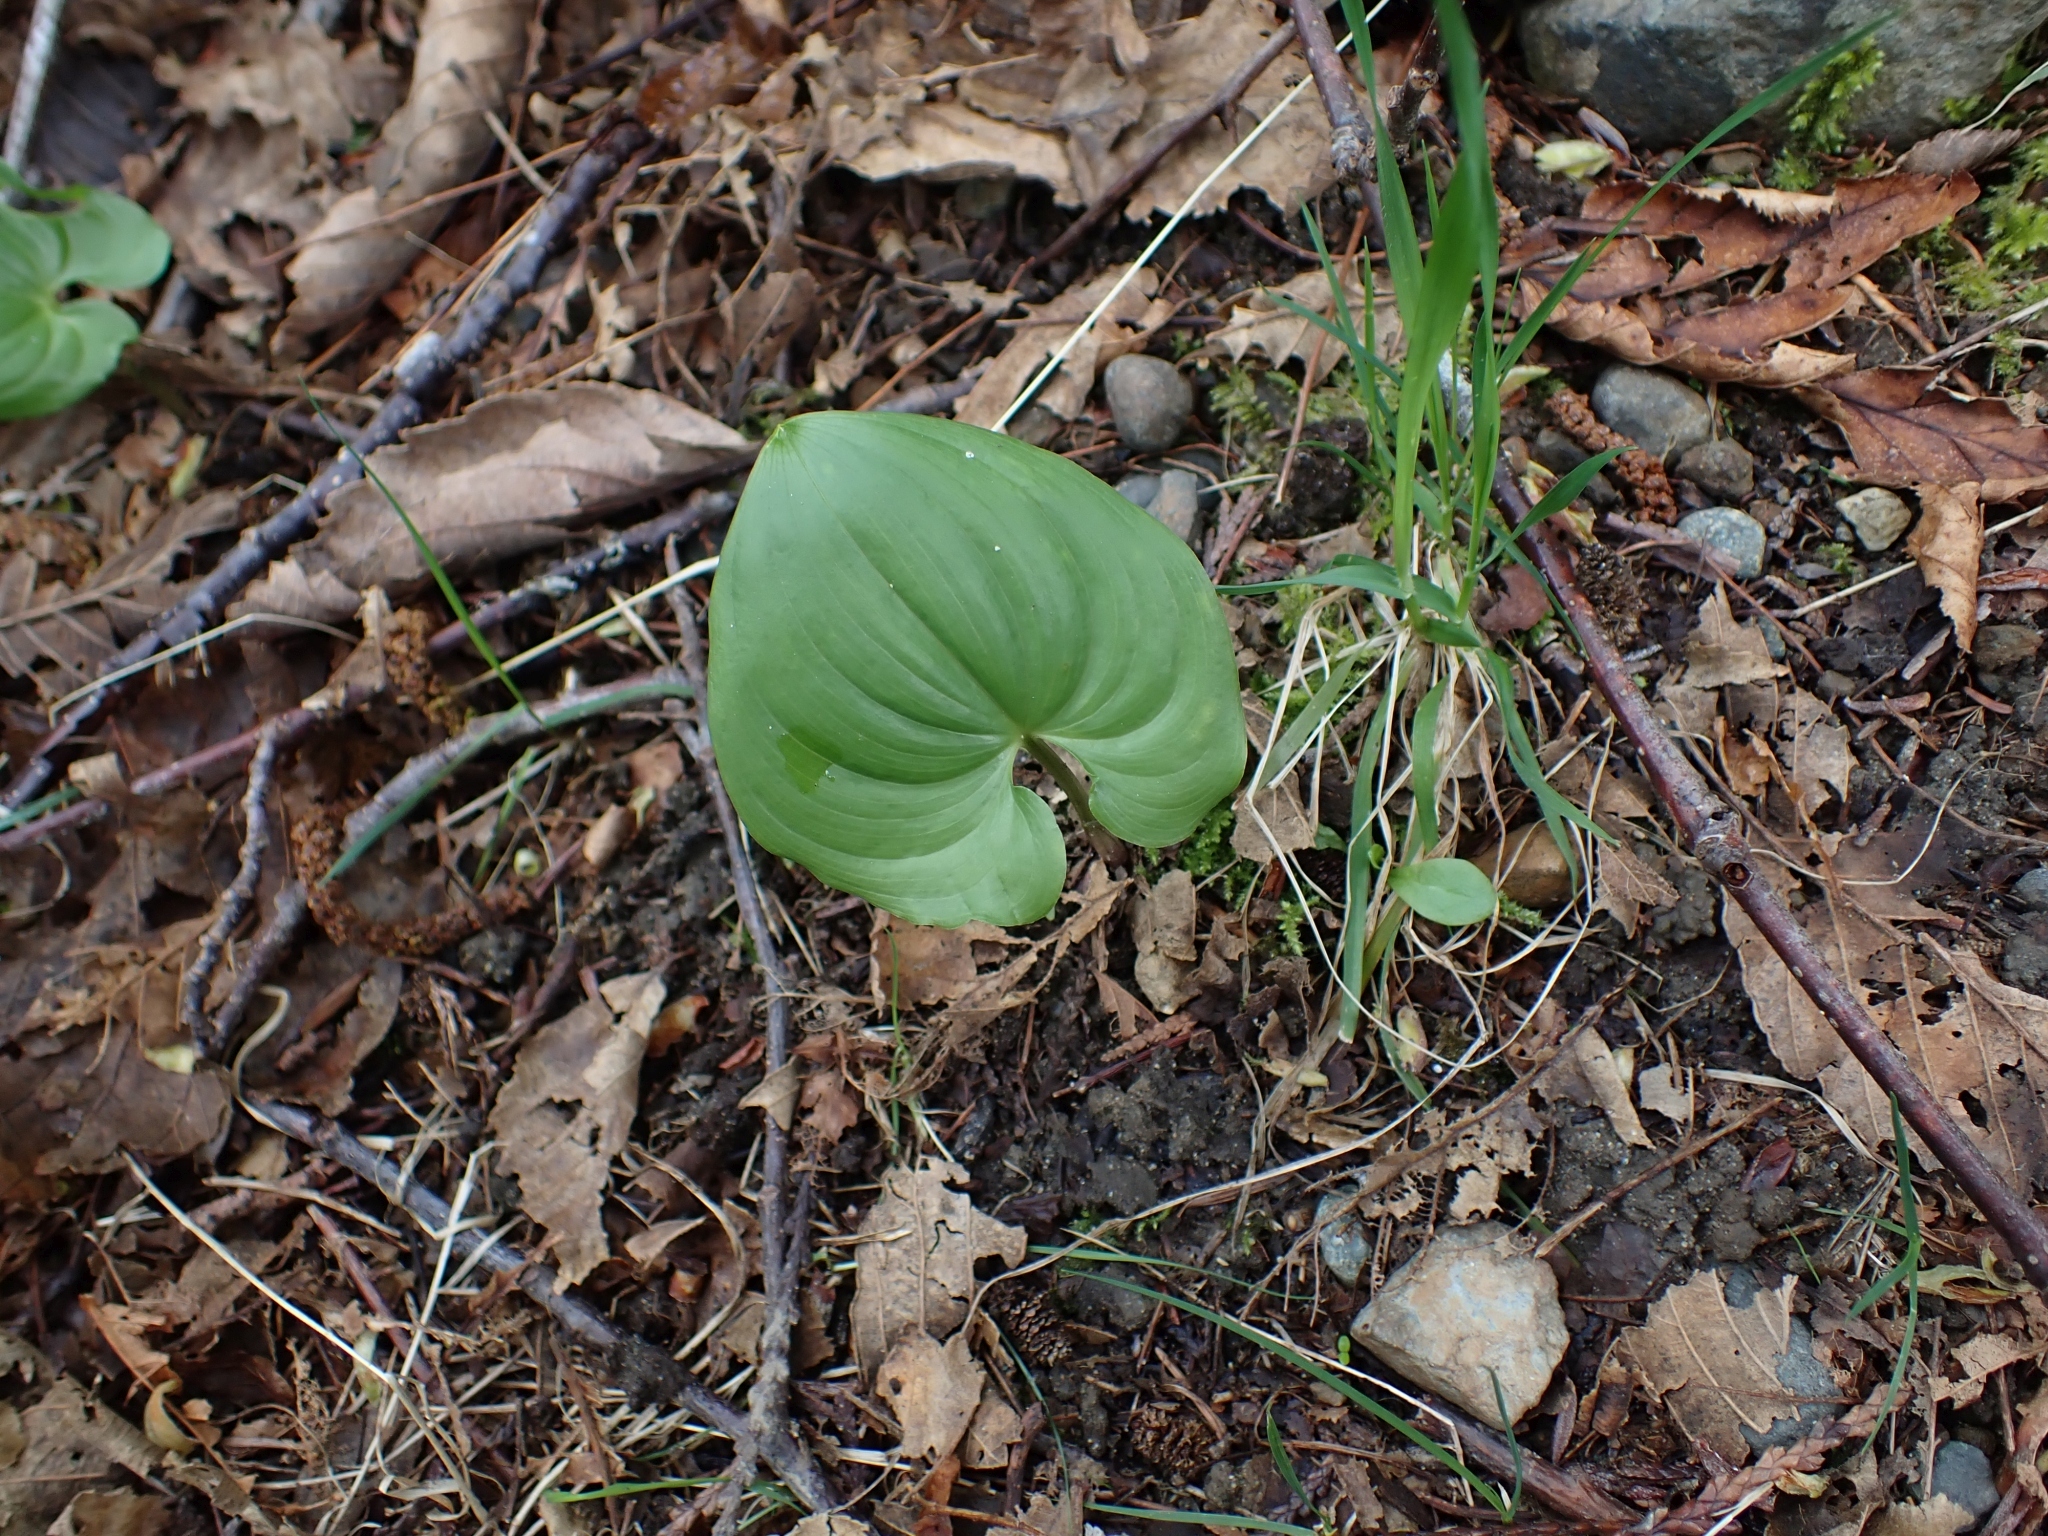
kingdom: Plantae
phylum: Tracheophyta
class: Liliopsida
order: Asparagales
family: Asparagaceae
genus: Maianthemum
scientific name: Maianthemum dilatatum
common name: False lily-of-the-valley
